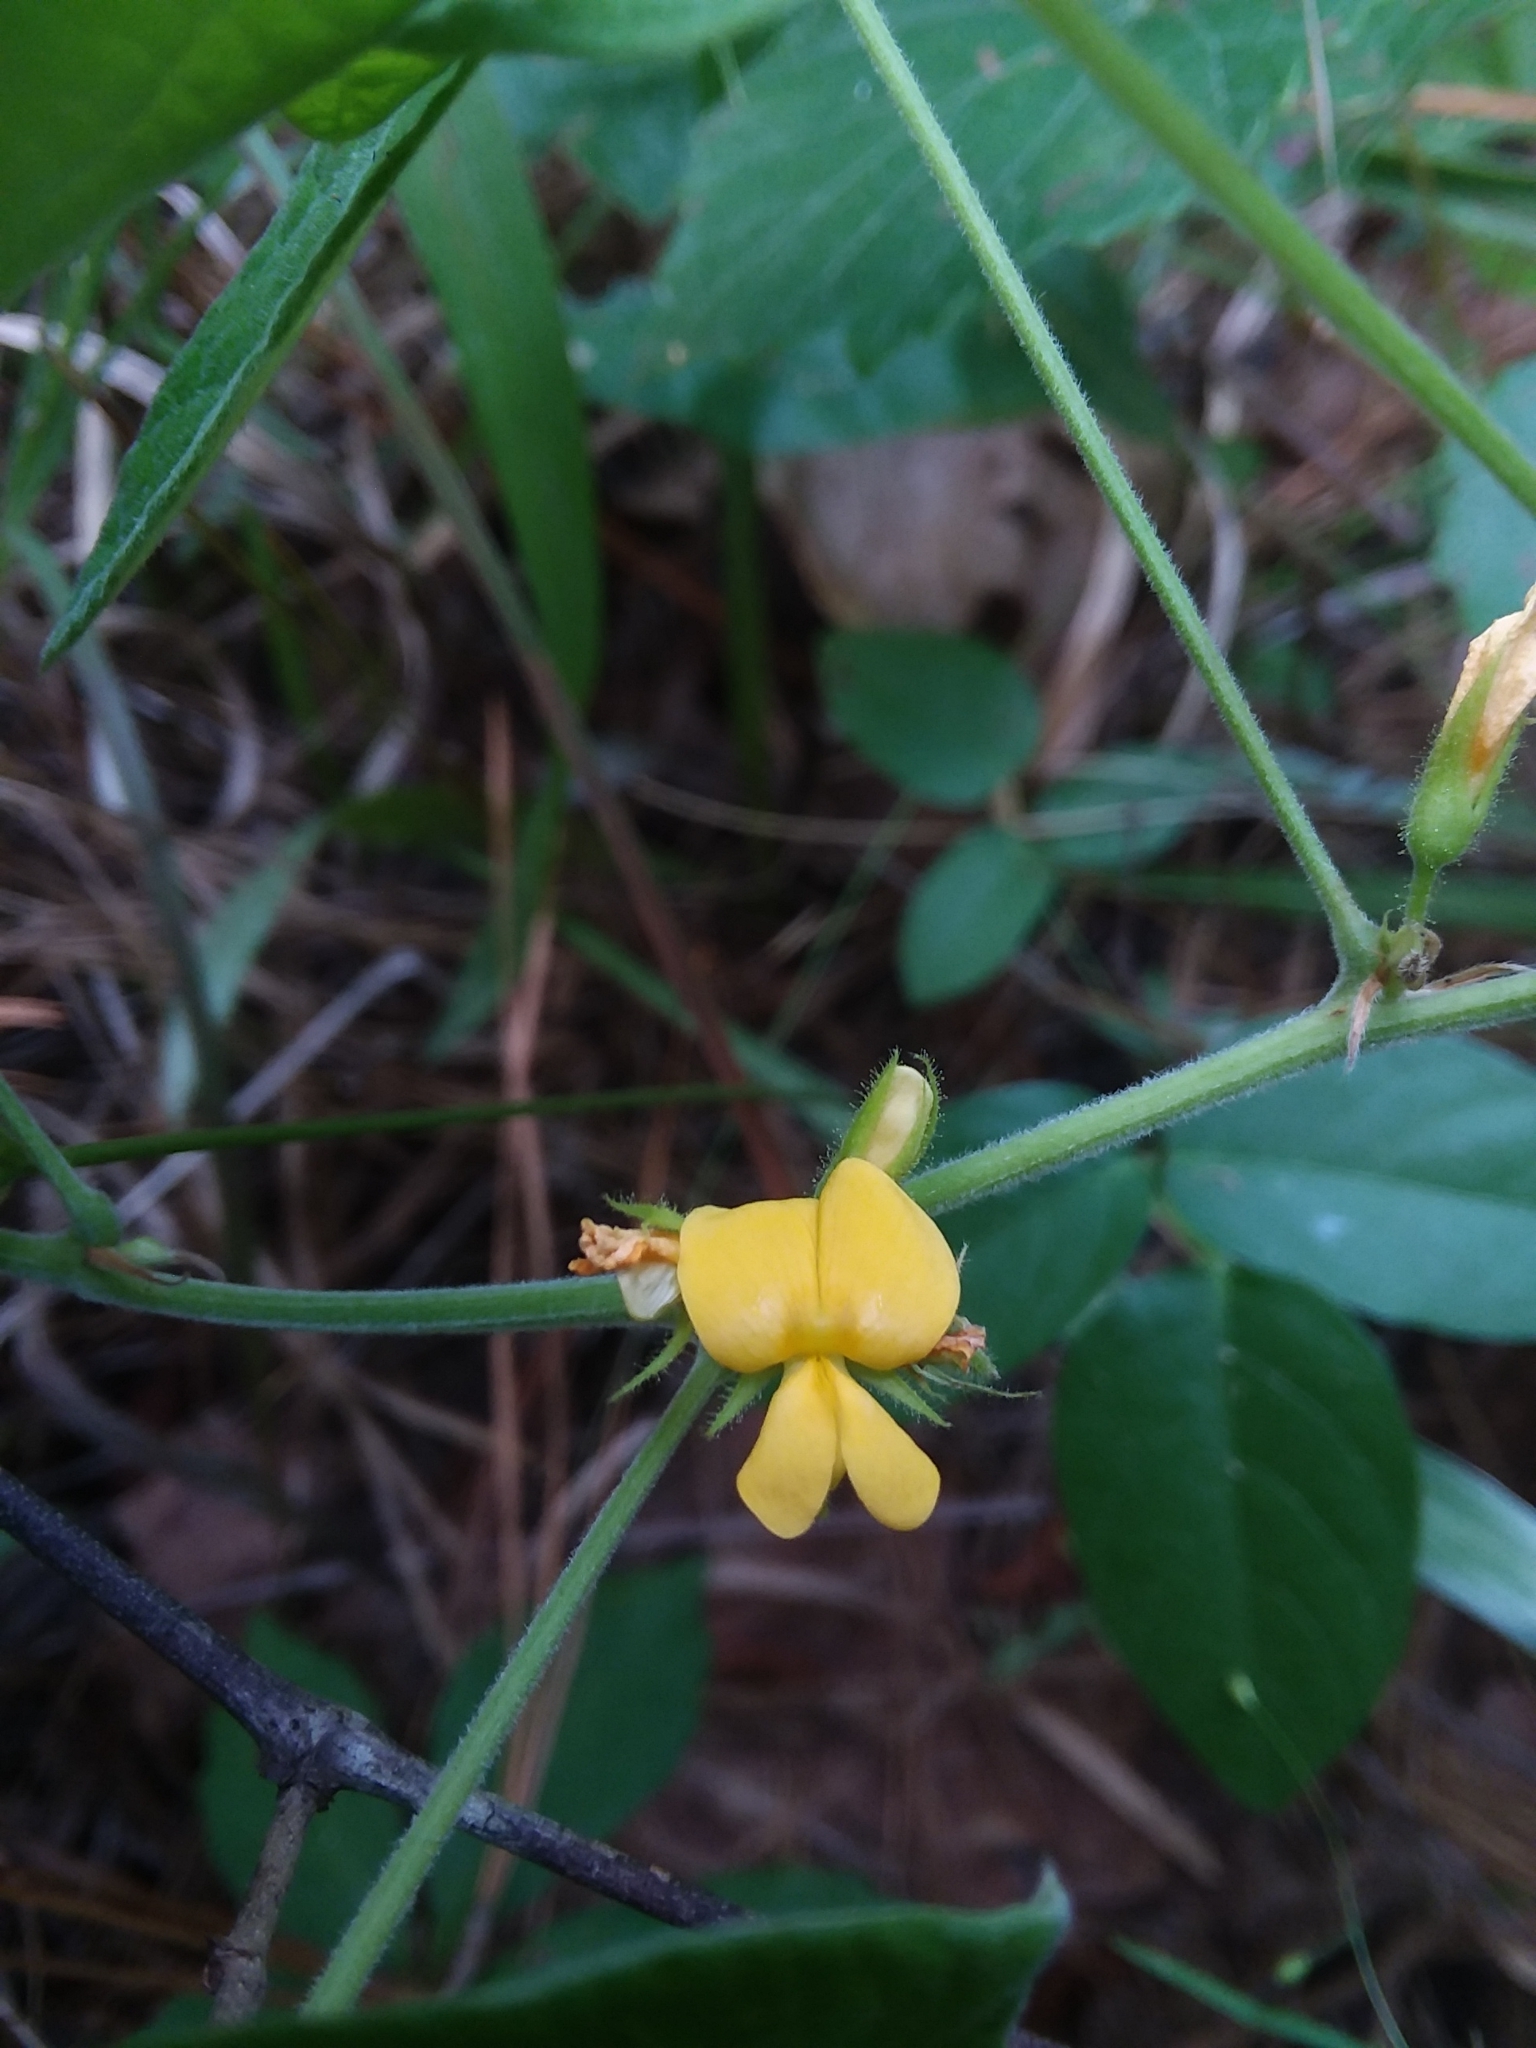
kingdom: Plantae
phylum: Tracheophyta
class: Magnoliopsida
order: Fabales
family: Fabaceae
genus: Rhynchosia
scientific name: Rhynchosia tomentosa
